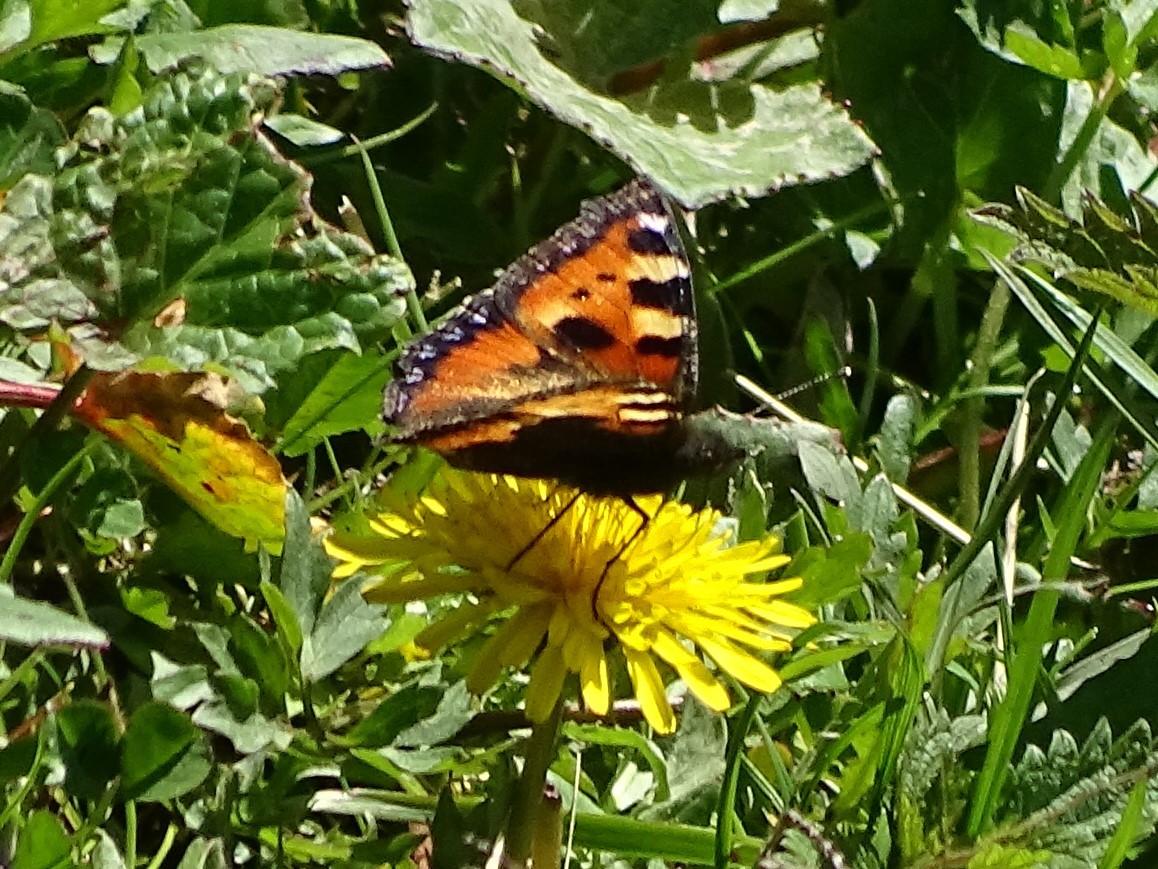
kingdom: Animalia
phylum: Arthropoda
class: Insecta
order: Lepidoptera
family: Nymphalidae
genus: Aglais
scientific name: Aglais urticae
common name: Small tortoiseshell
